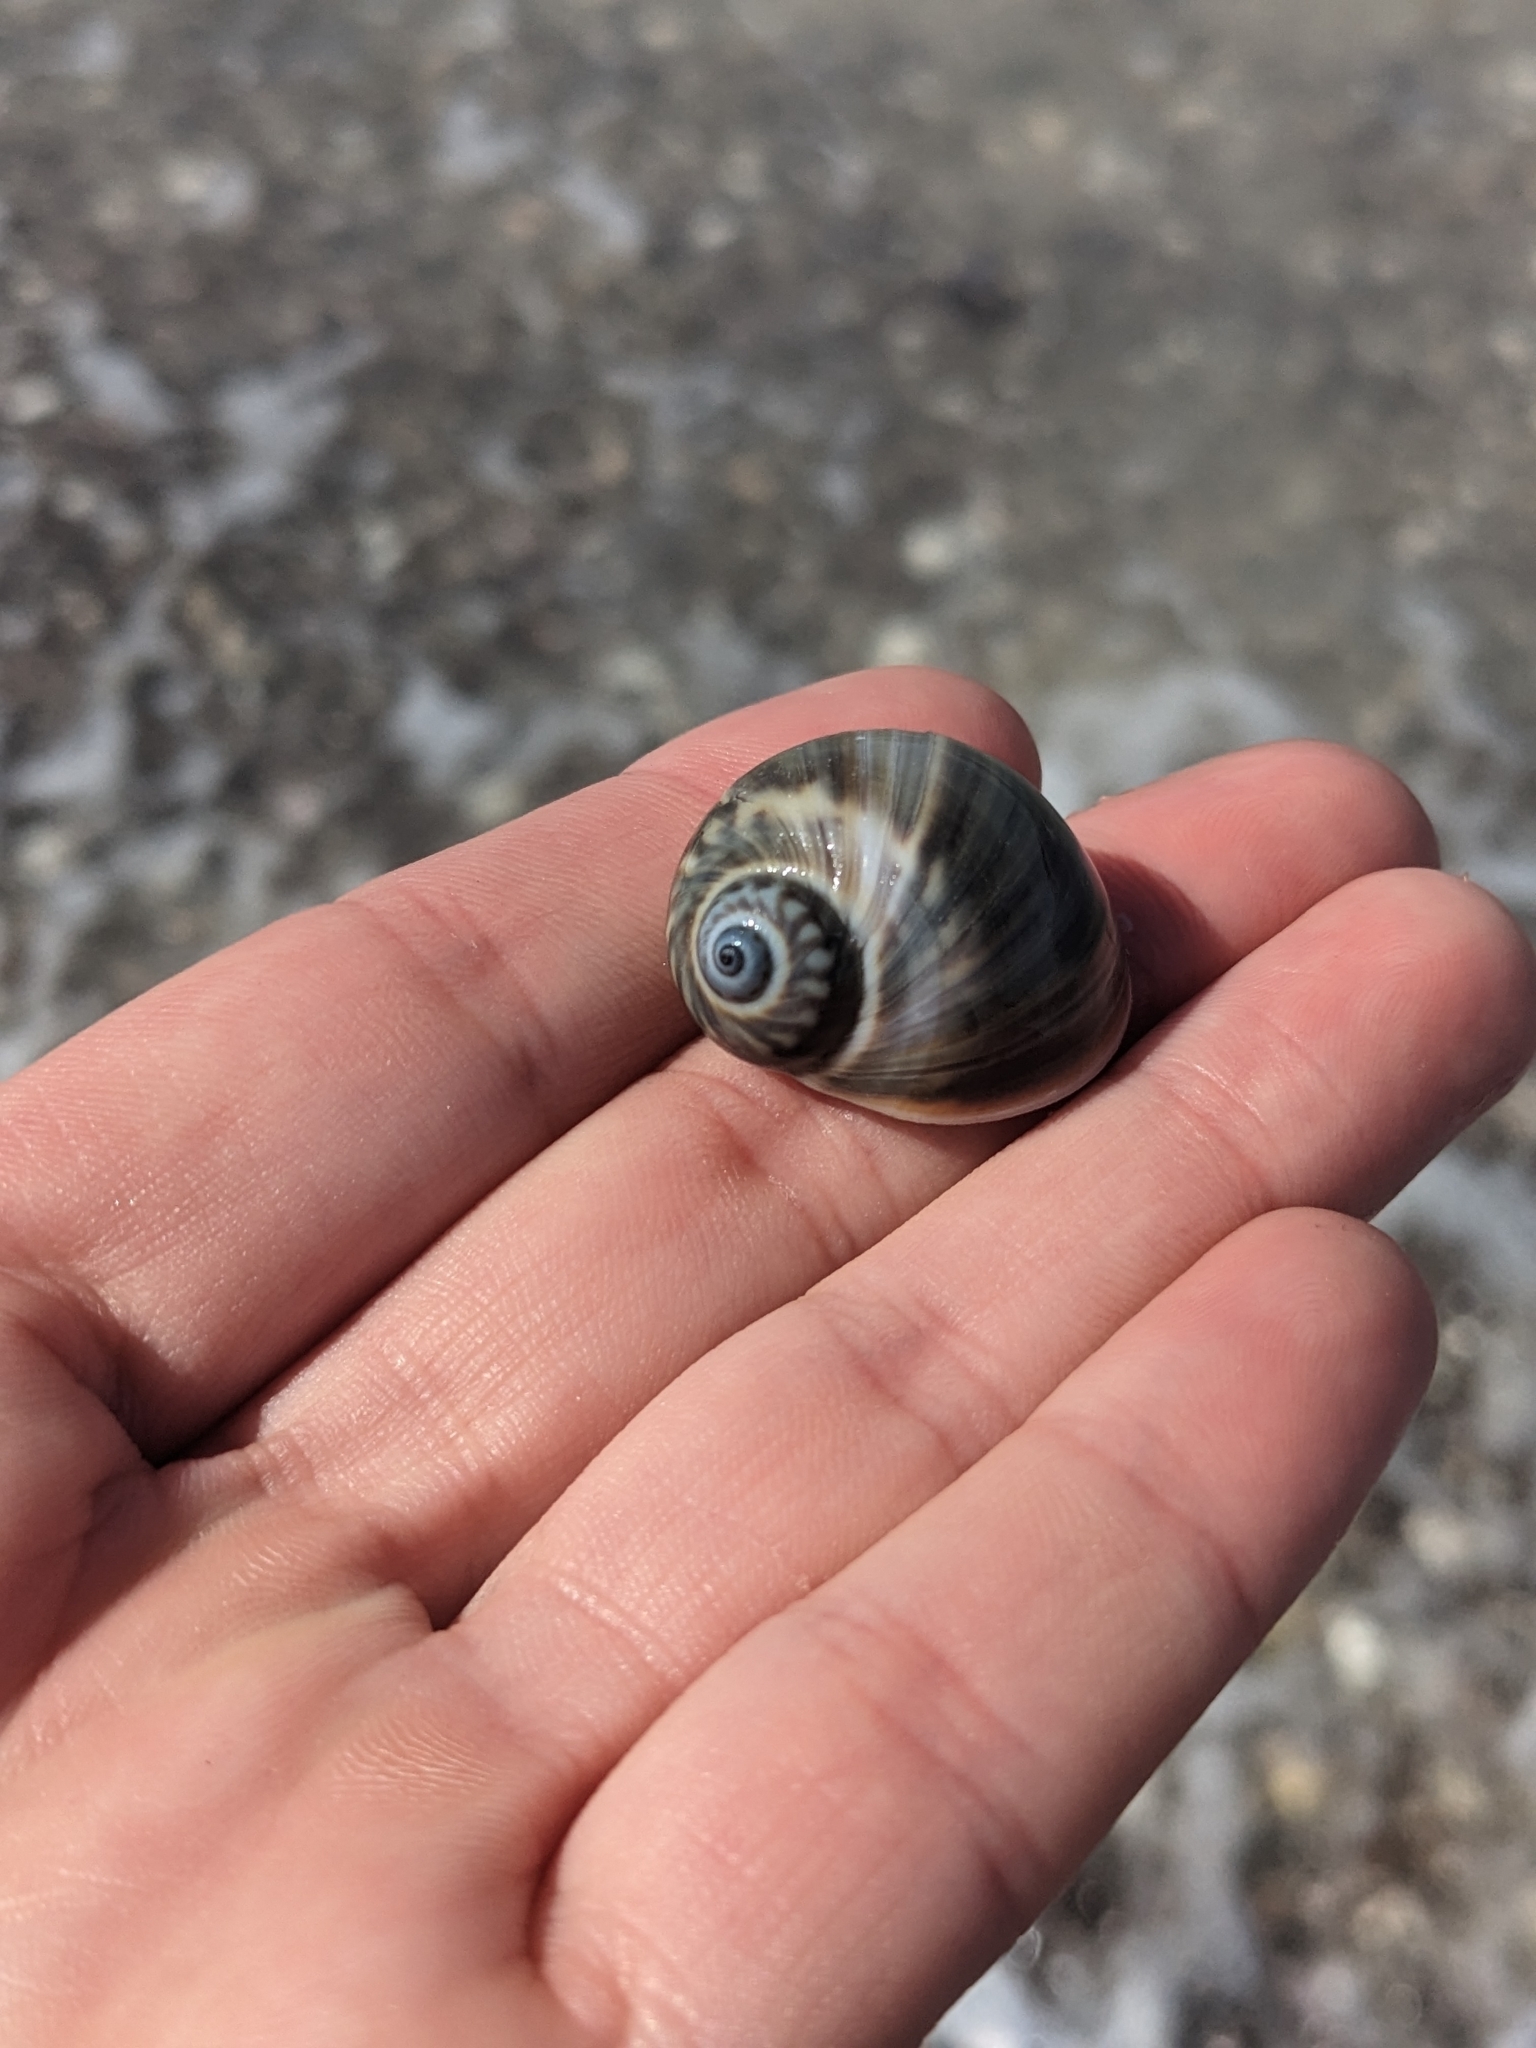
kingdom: Animalia
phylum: Mollusca
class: Gastropoda
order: Littorinimorpha
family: Naticidae
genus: Notocochlis
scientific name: Notocochlis chemnitzii
